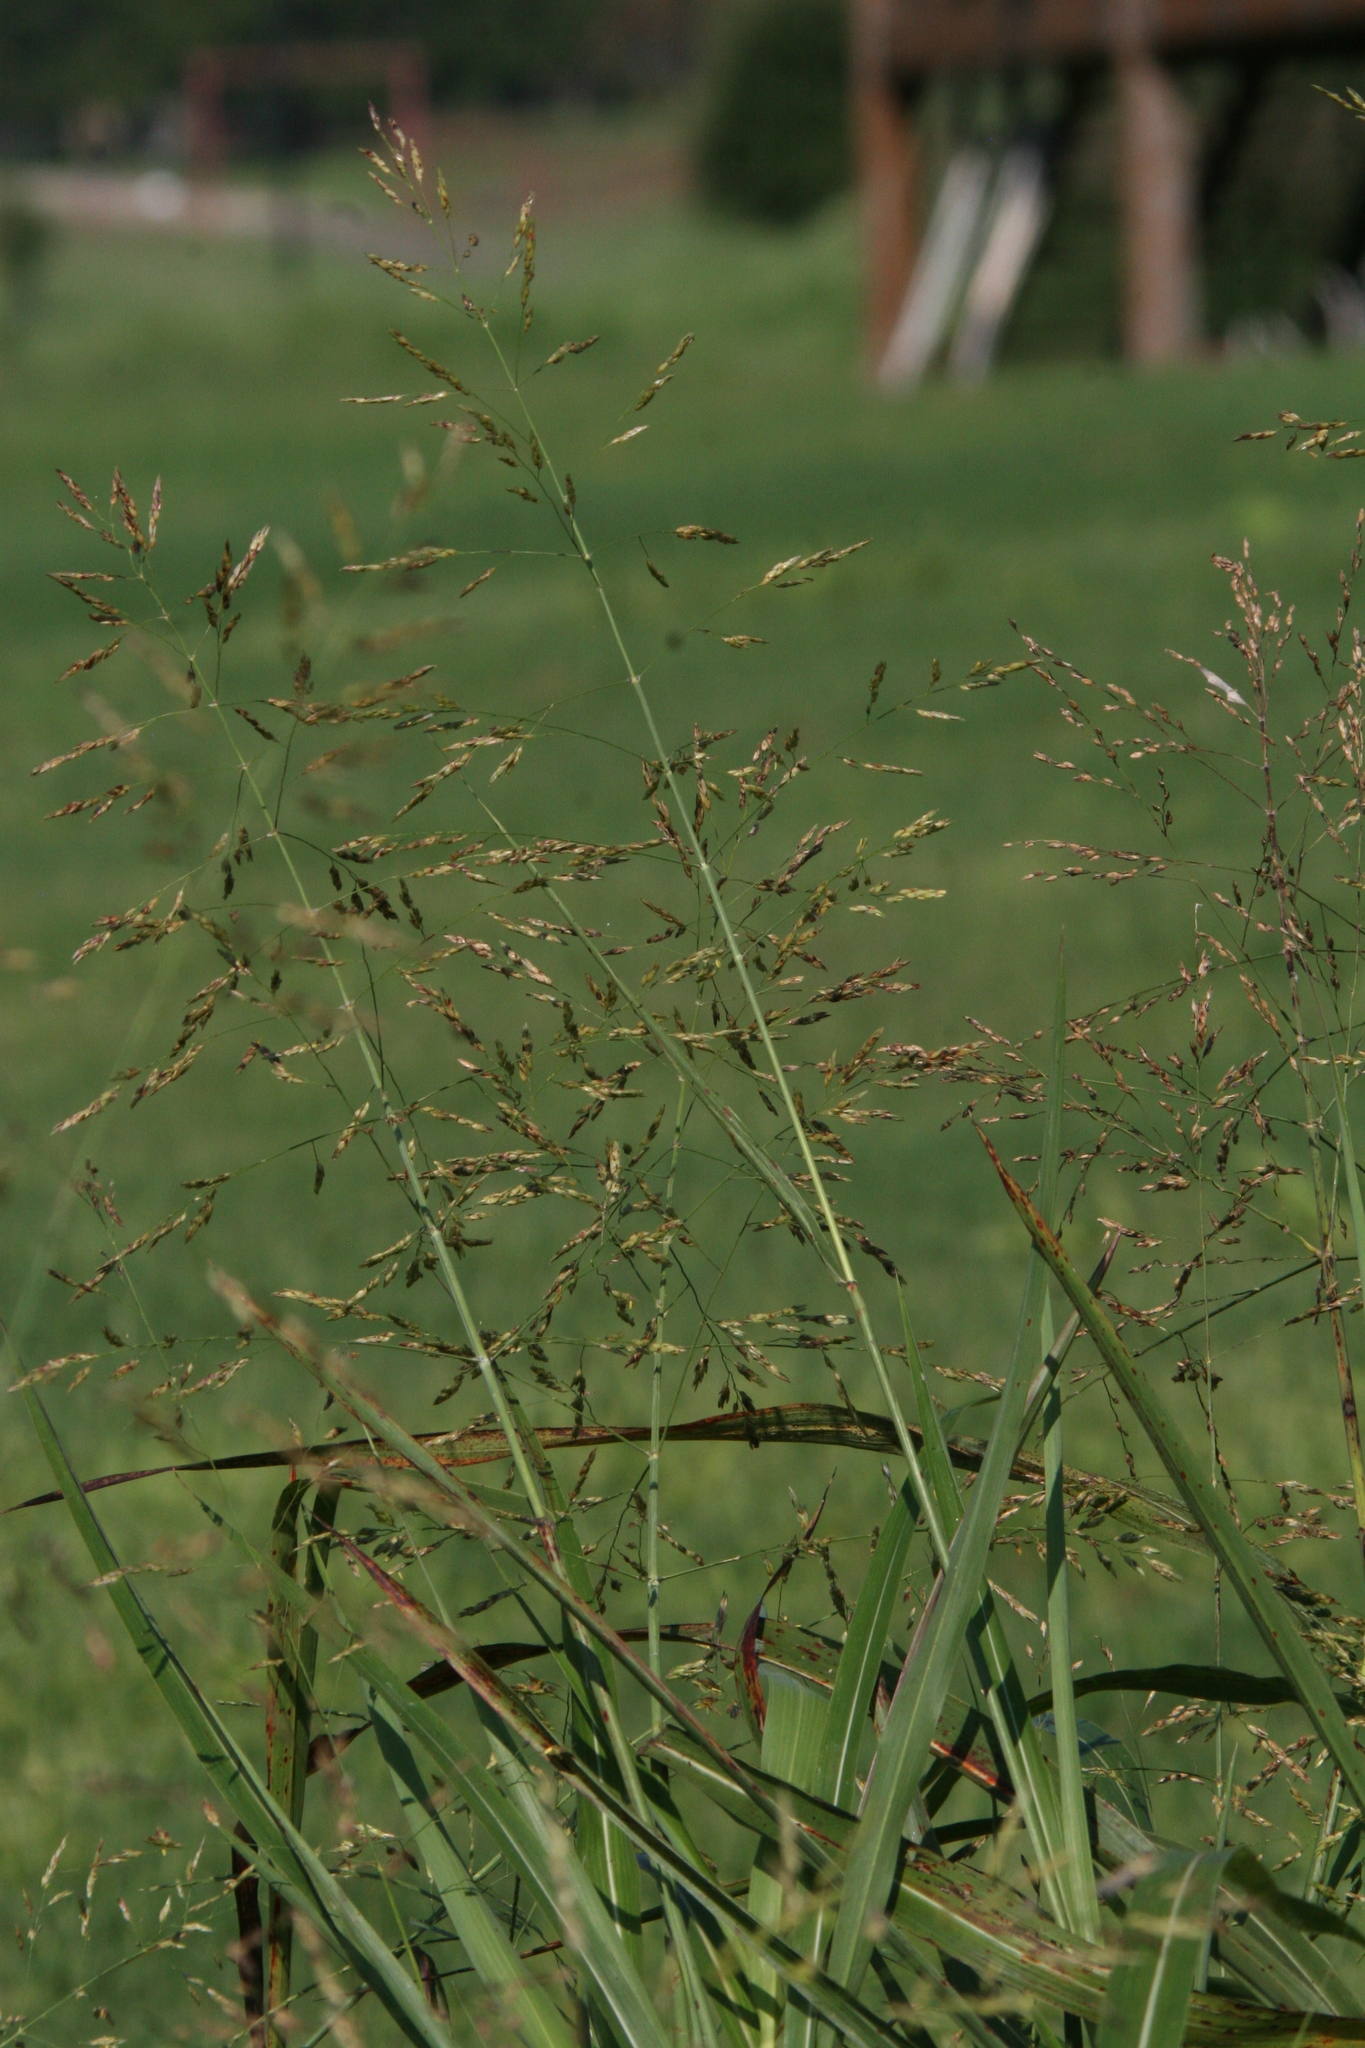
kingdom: Plantae
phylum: Tracheophyta
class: Liliopsida
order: Poales
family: Poaceae
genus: Sorghum
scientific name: Sorghum halepense
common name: Johnson-grass
